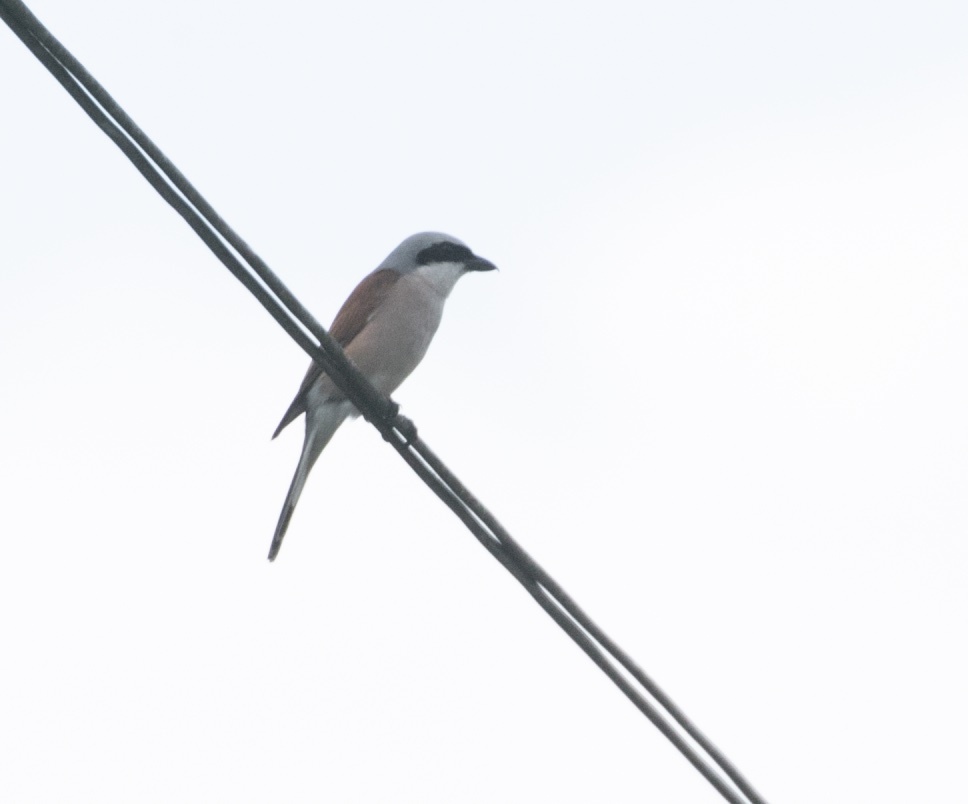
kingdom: Animalia
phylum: Chordata
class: Aves
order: Passeriformes
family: Laniidae
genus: Lanius
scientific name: Lanius collurio
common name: Red-backed shrike
